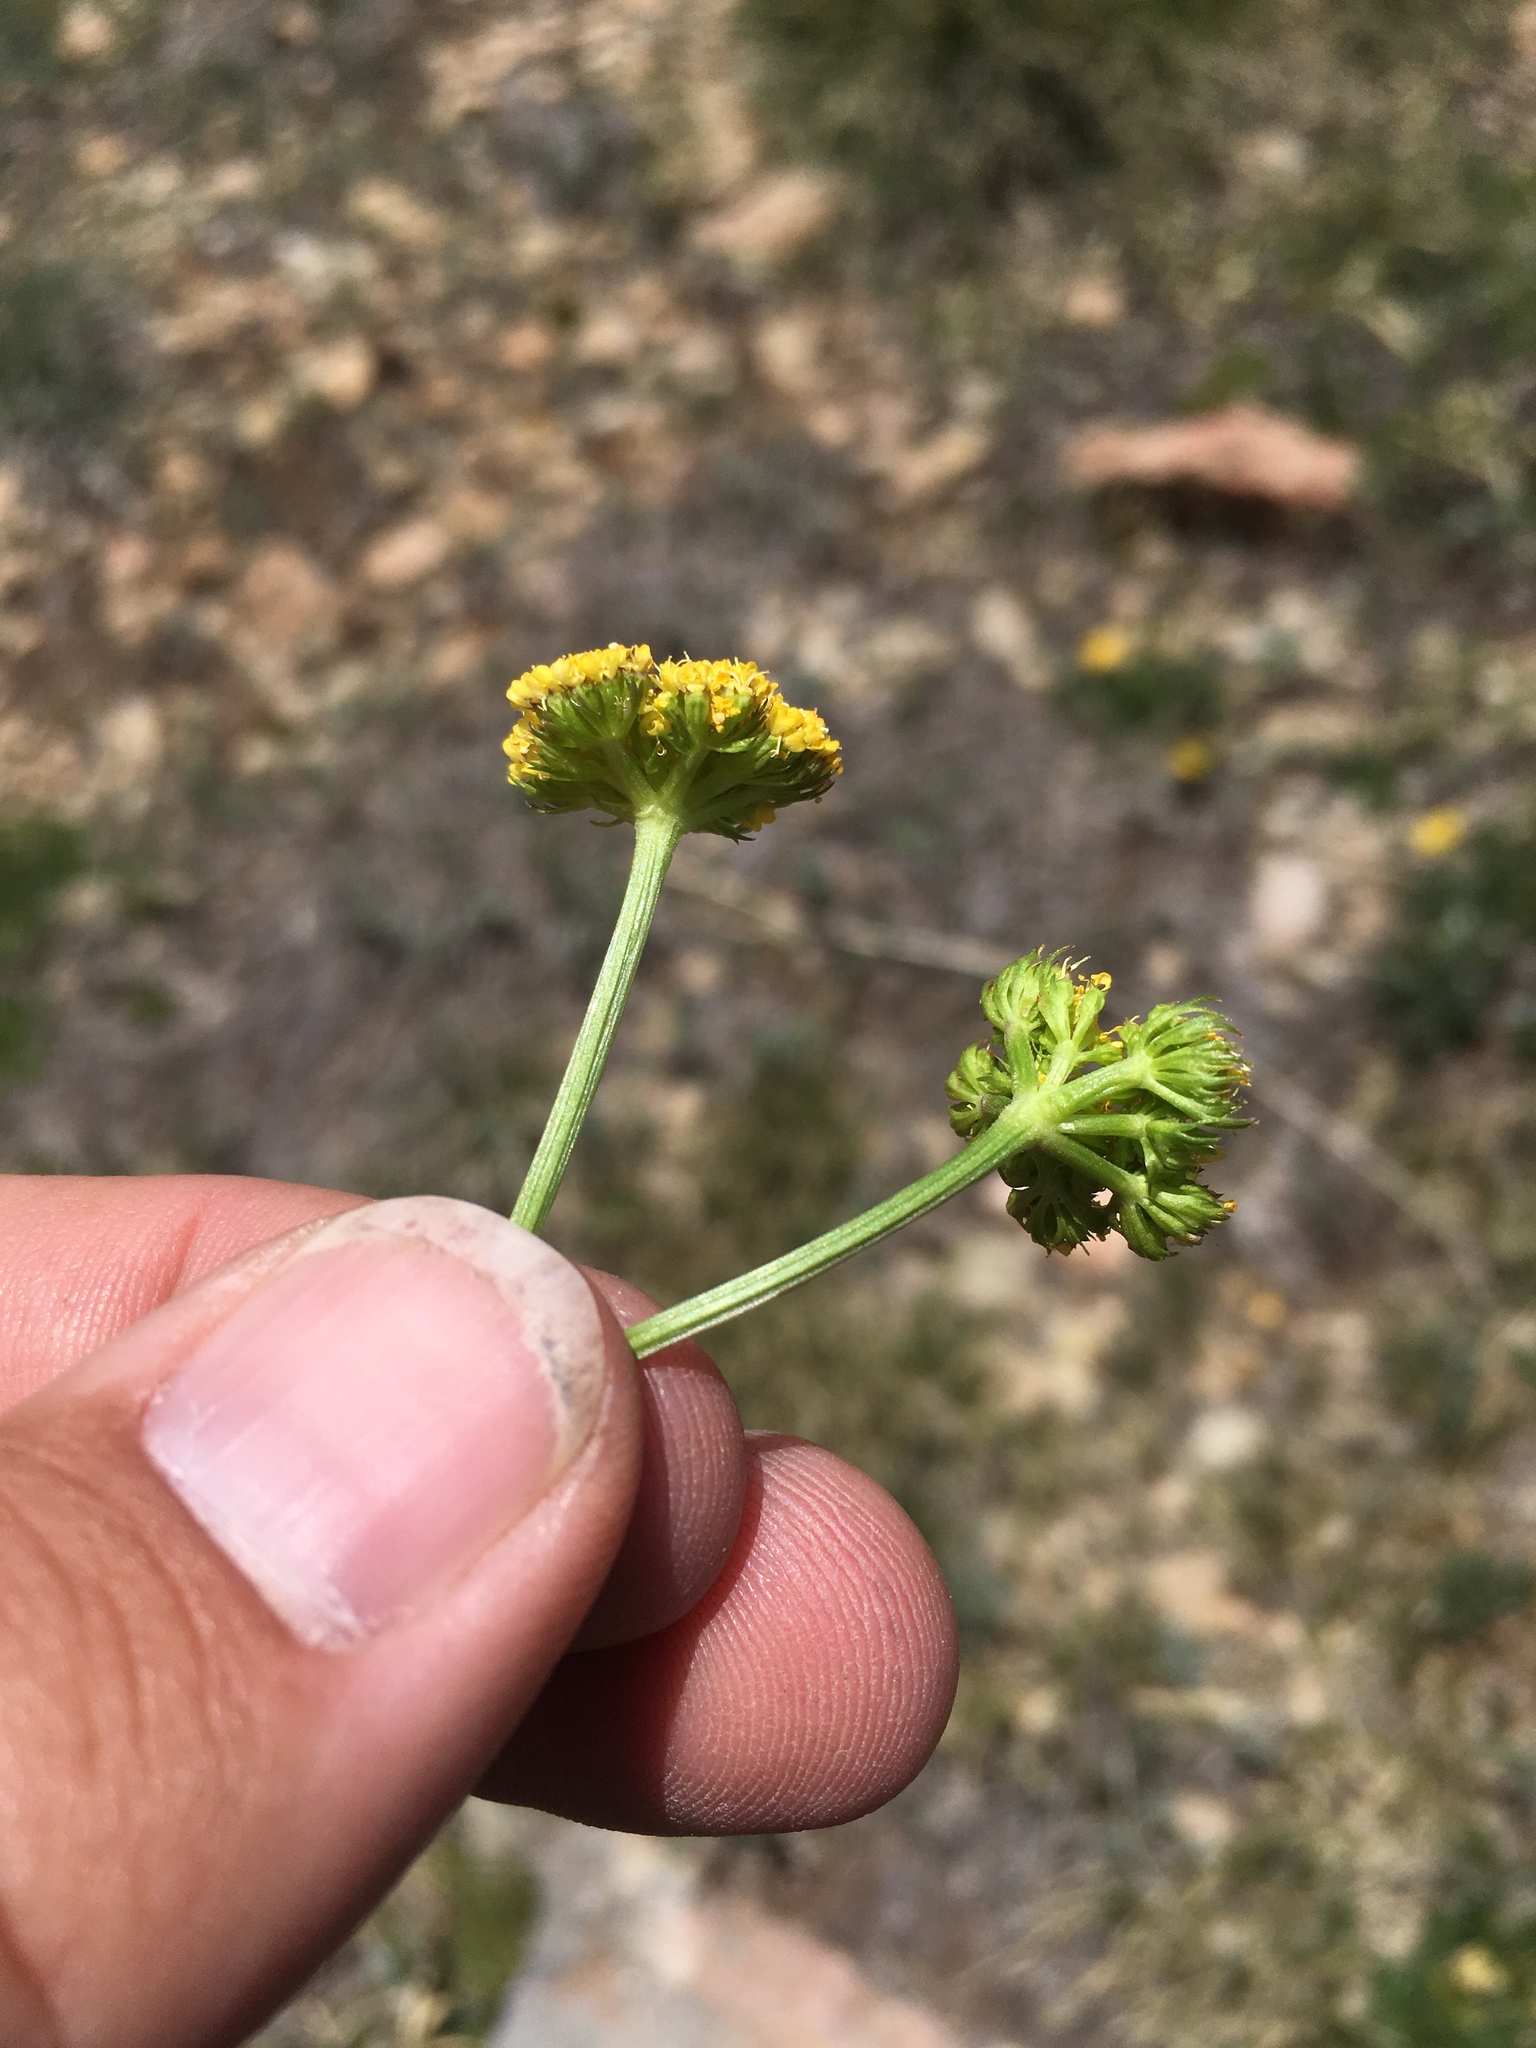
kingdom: Plantae
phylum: Tracheophyta
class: Magnoliopsida
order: Apiales
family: Apiaceae
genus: Oreoxis
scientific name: Oreoxis bakeri
